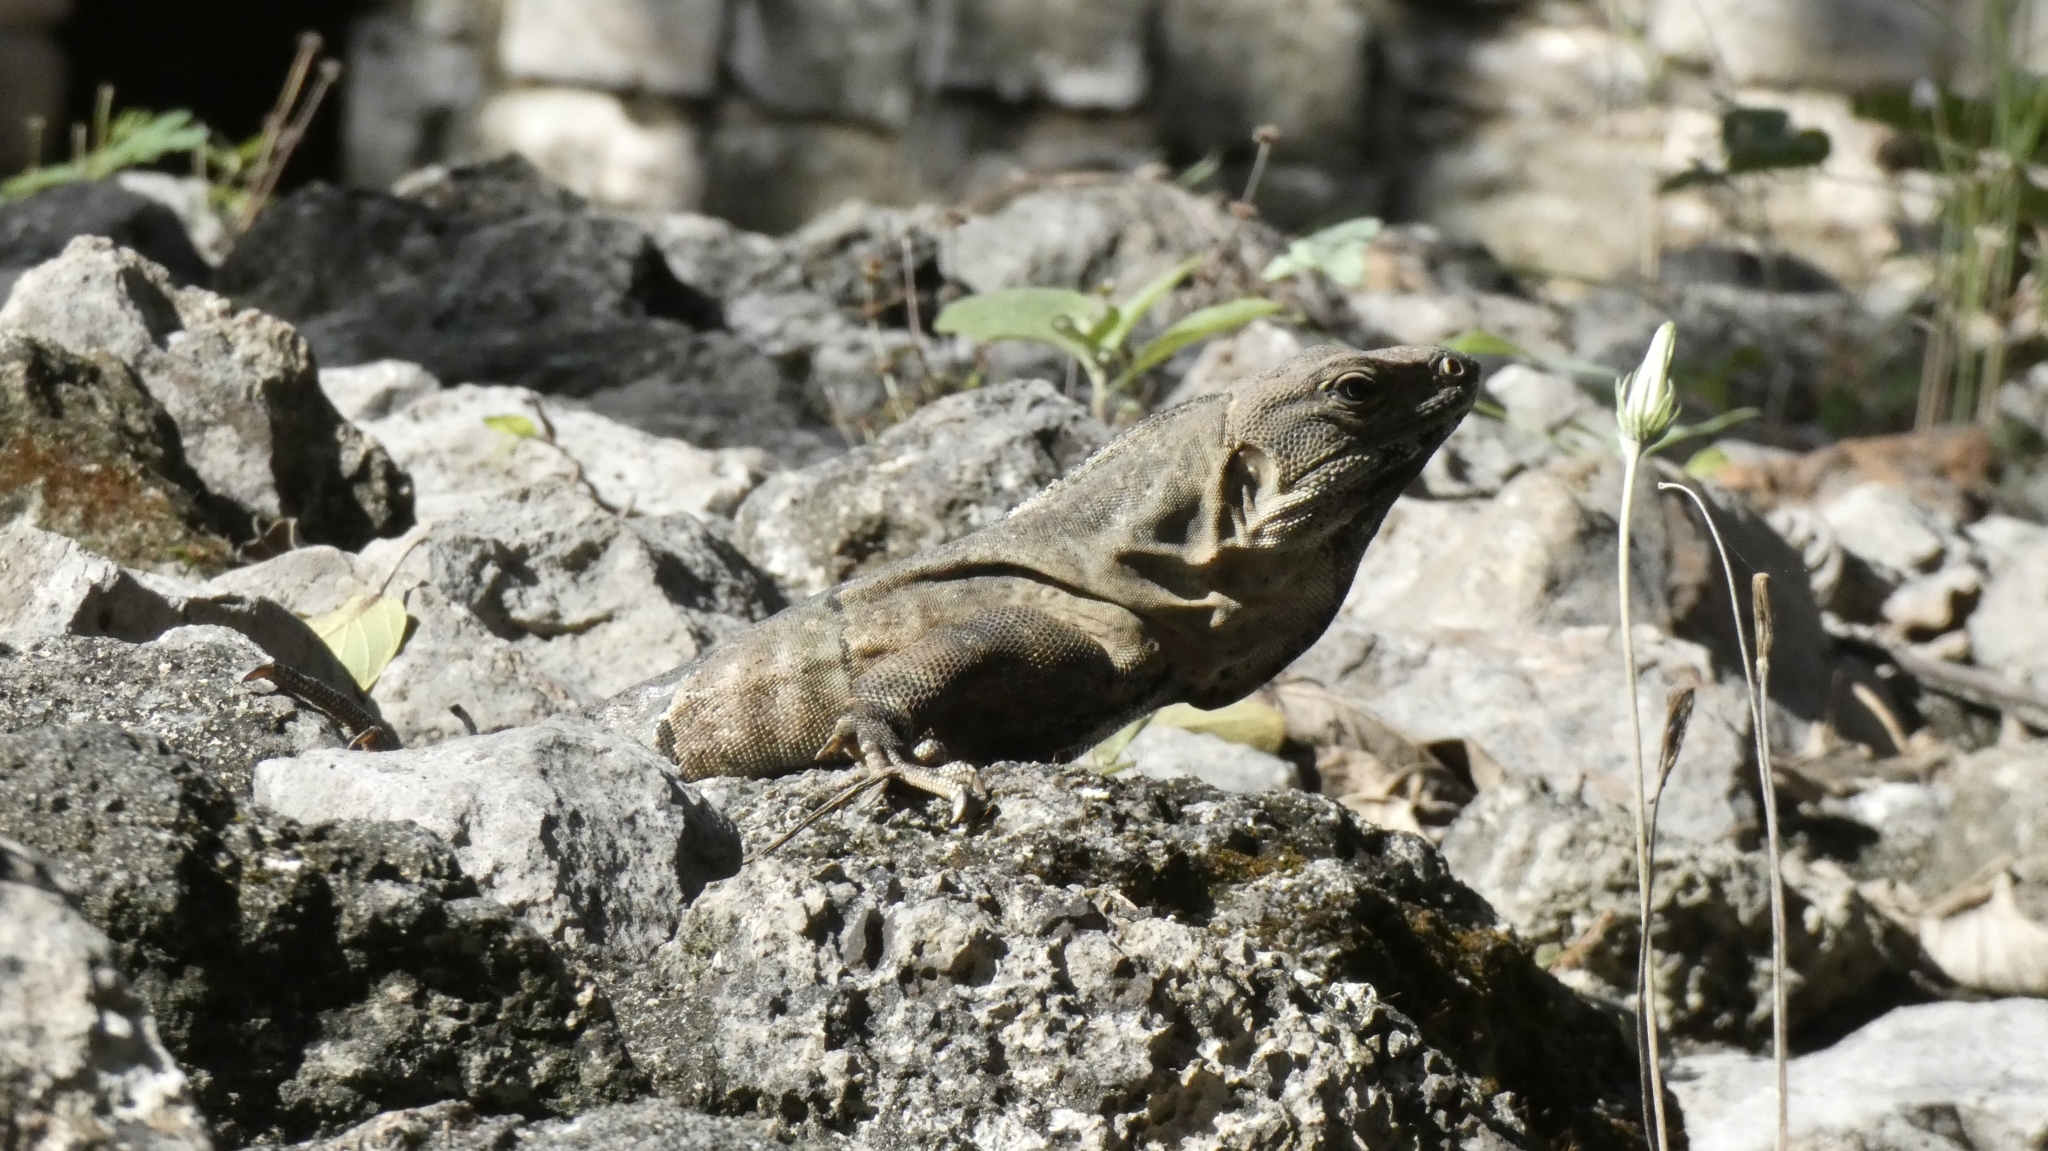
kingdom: Animalia
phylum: Chordata
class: Squamata
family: Iguanidae
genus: Ctenosaura
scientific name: Ctenosaura similis
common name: Black spiny-tailed iguana
